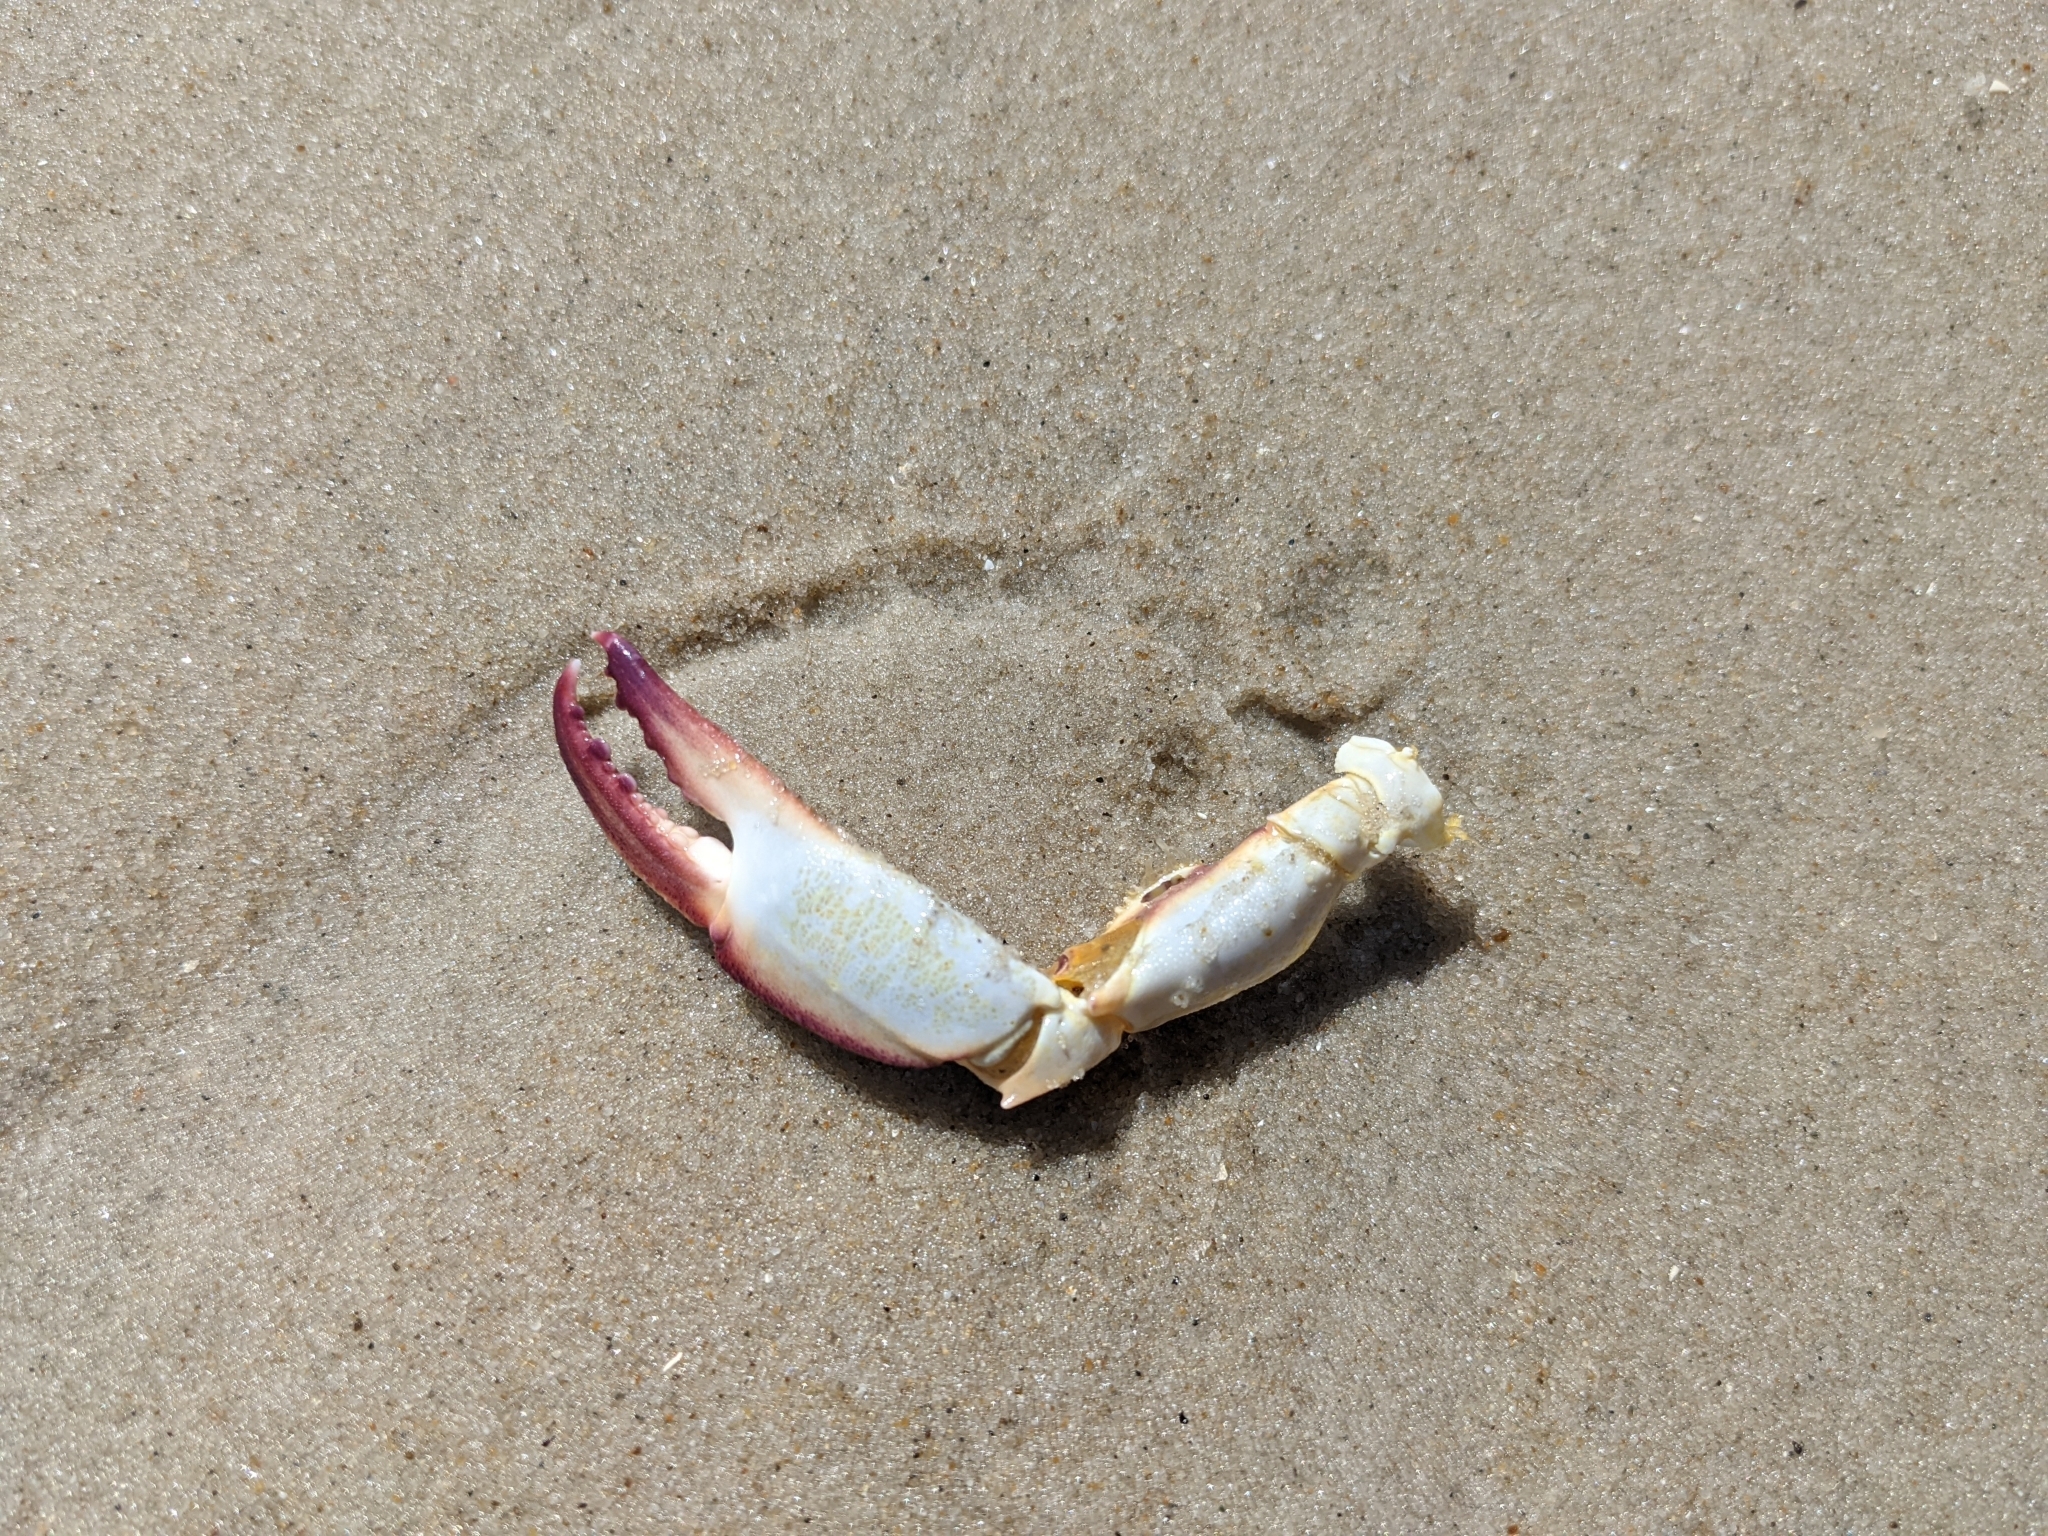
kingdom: Animalia
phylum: Arthropoda
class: Malacostraca
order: Decapoda
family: Ovalipidae
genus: Ovalipes
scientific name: Ovalipes ocellatus
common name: Lady crab
